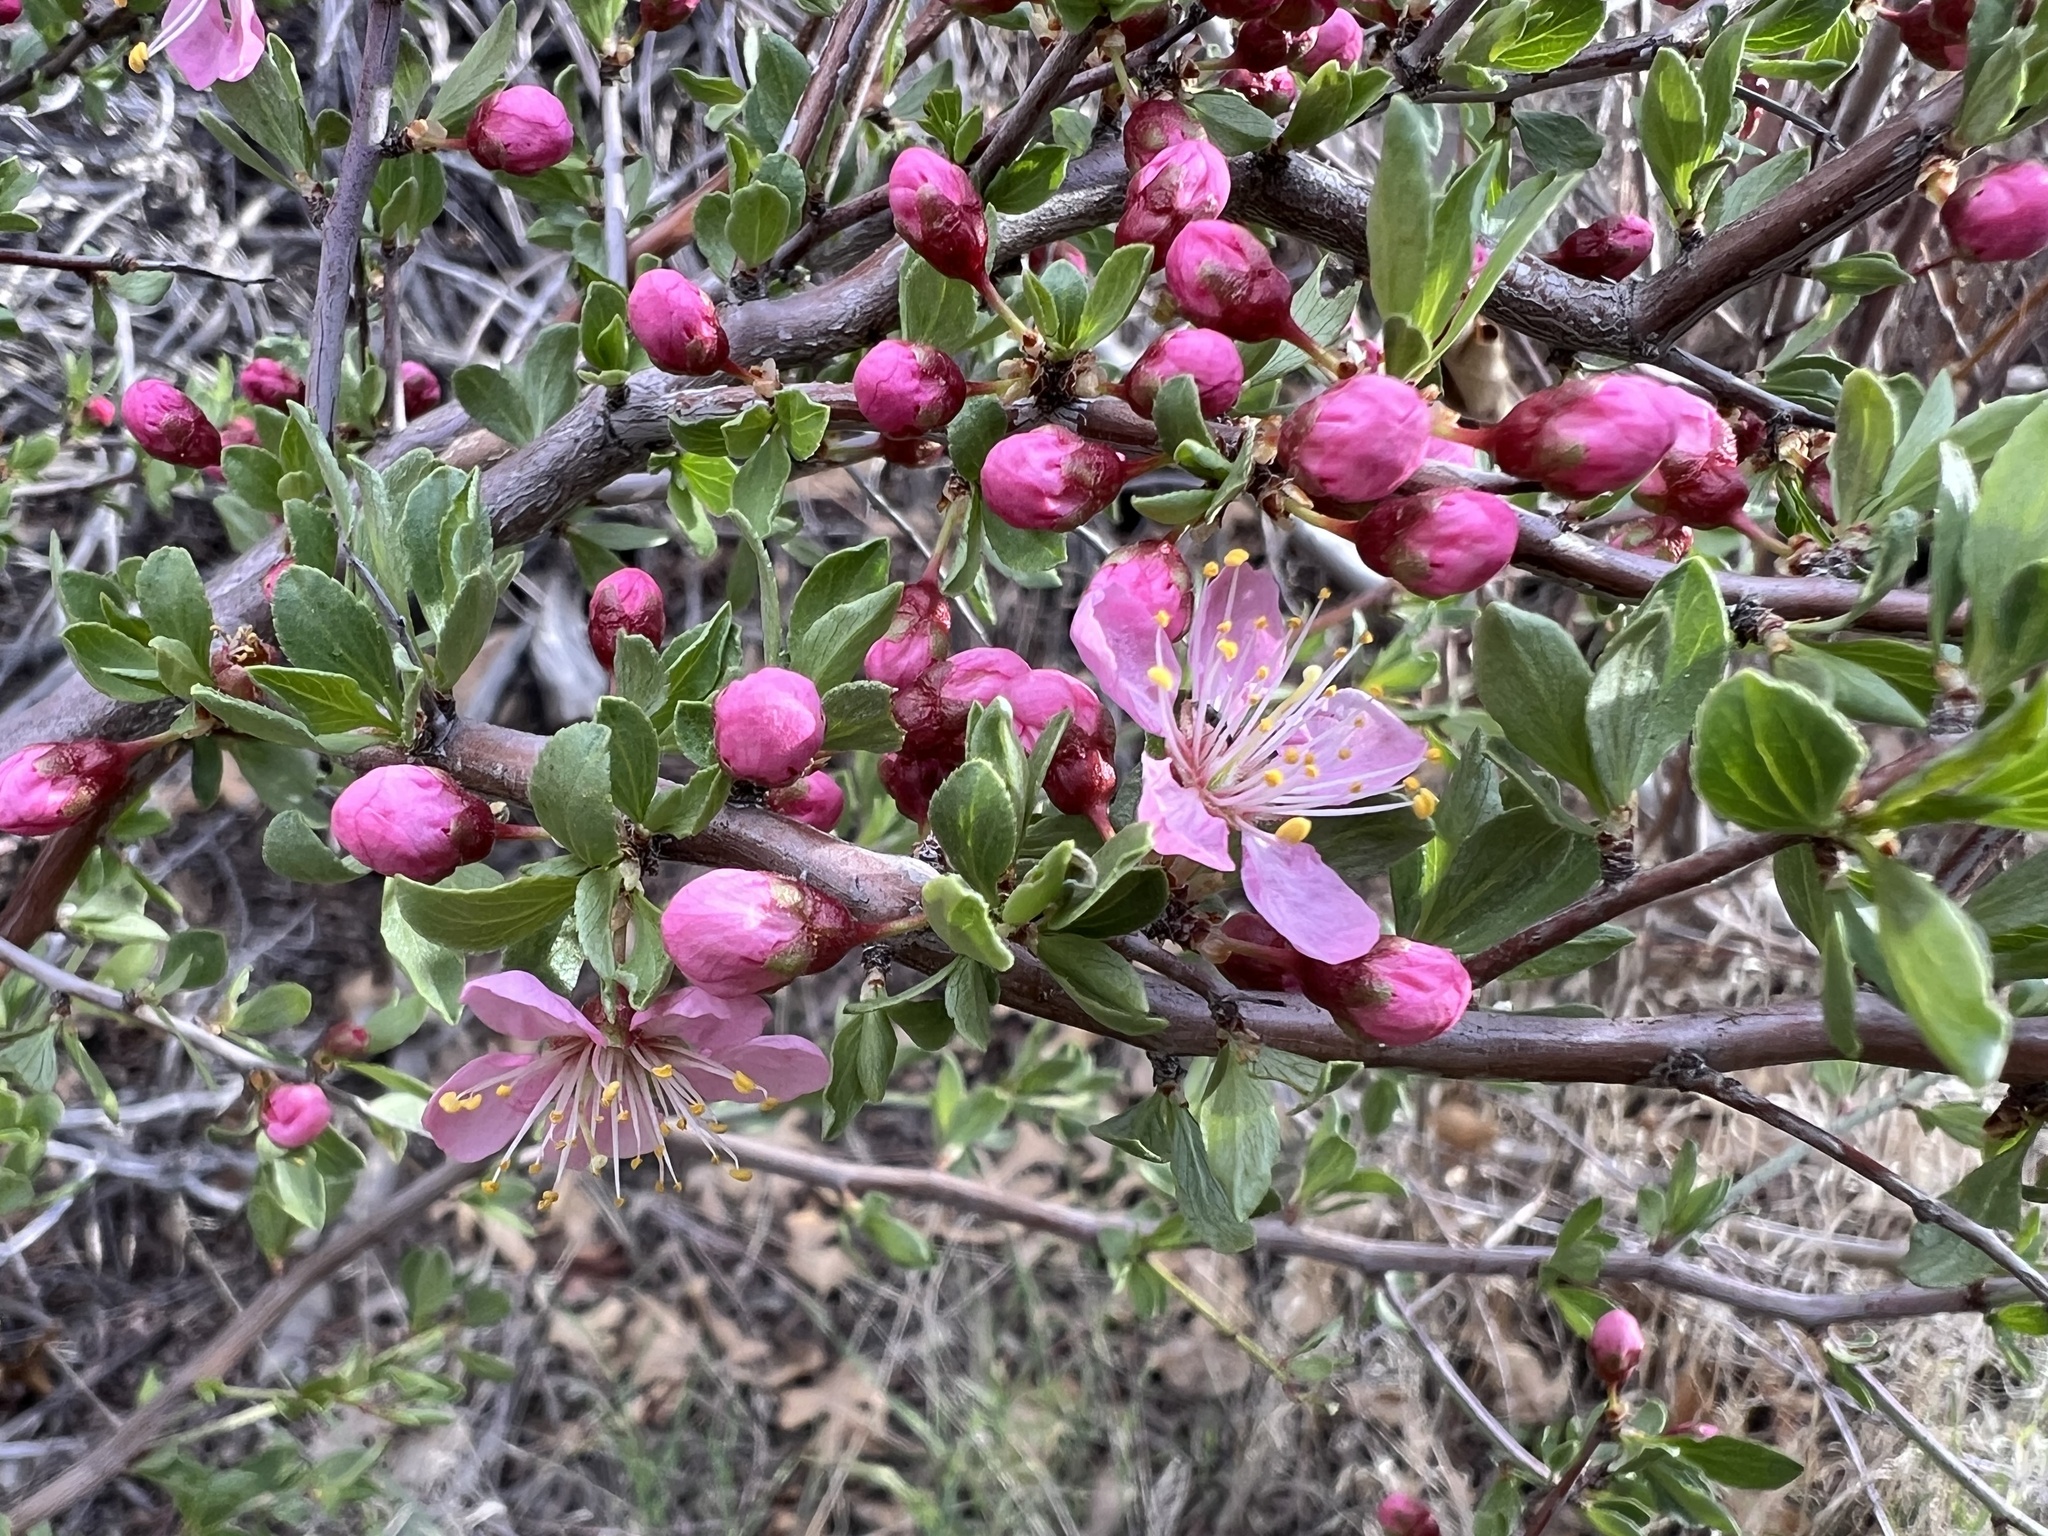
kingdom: Plantae
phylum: Tracheophyta
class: Magnoliopsida
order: Rosales
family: Rosaceae
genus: Prunus
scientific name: Prunus andersonii
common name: Desert peach
